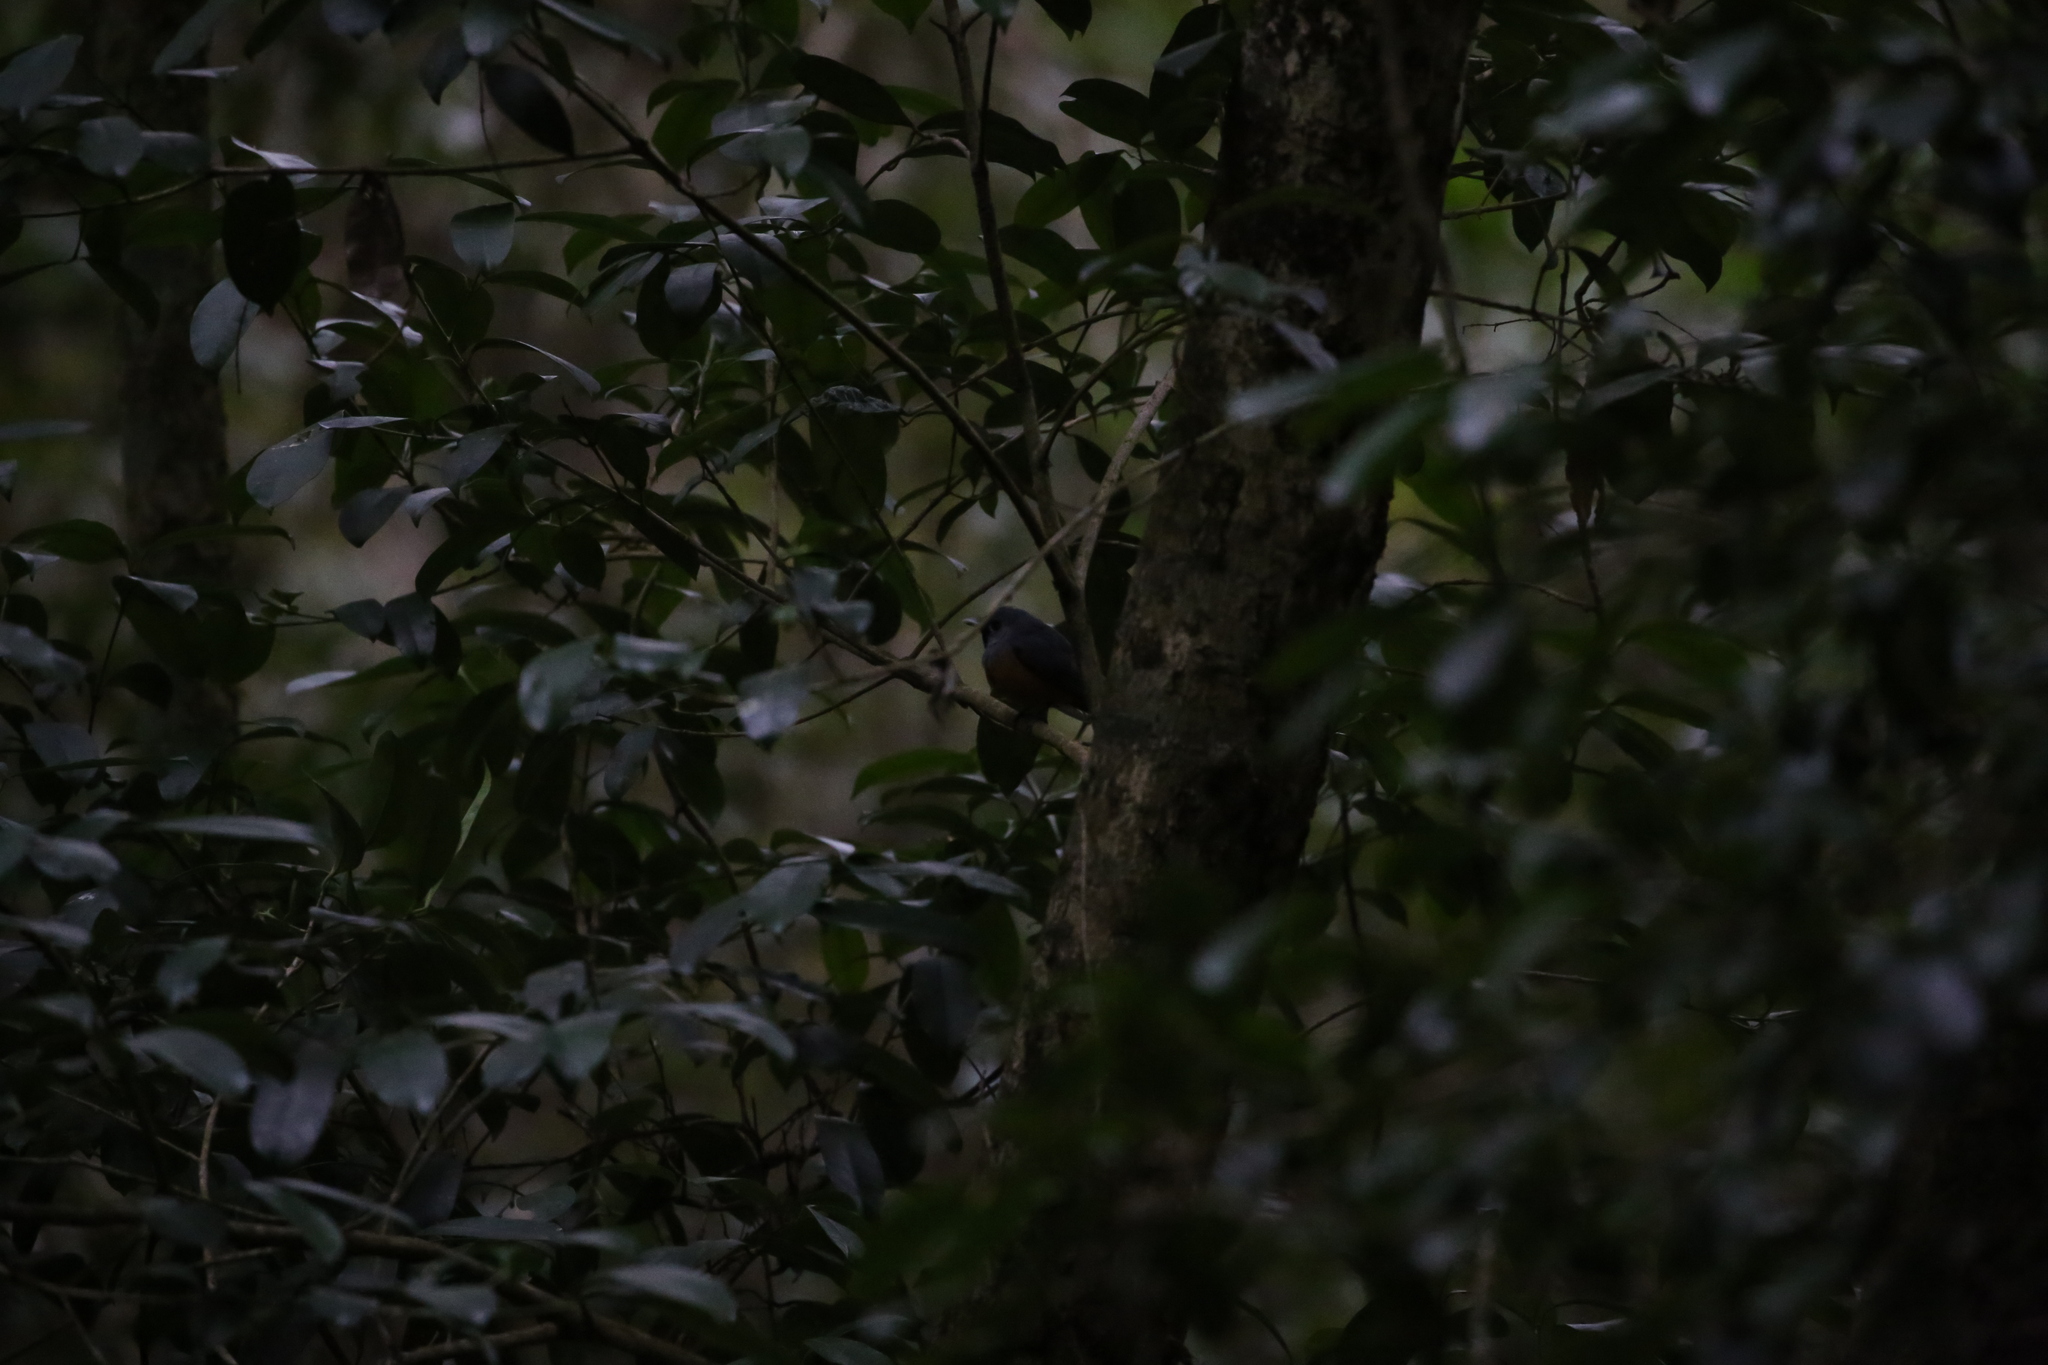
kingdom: Animalia
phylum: Chordata
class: Aves
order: Passeriformes
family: Monarchidae
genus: Monarcha
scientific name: Monarcha melanopsis
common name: Black-faced monarch
